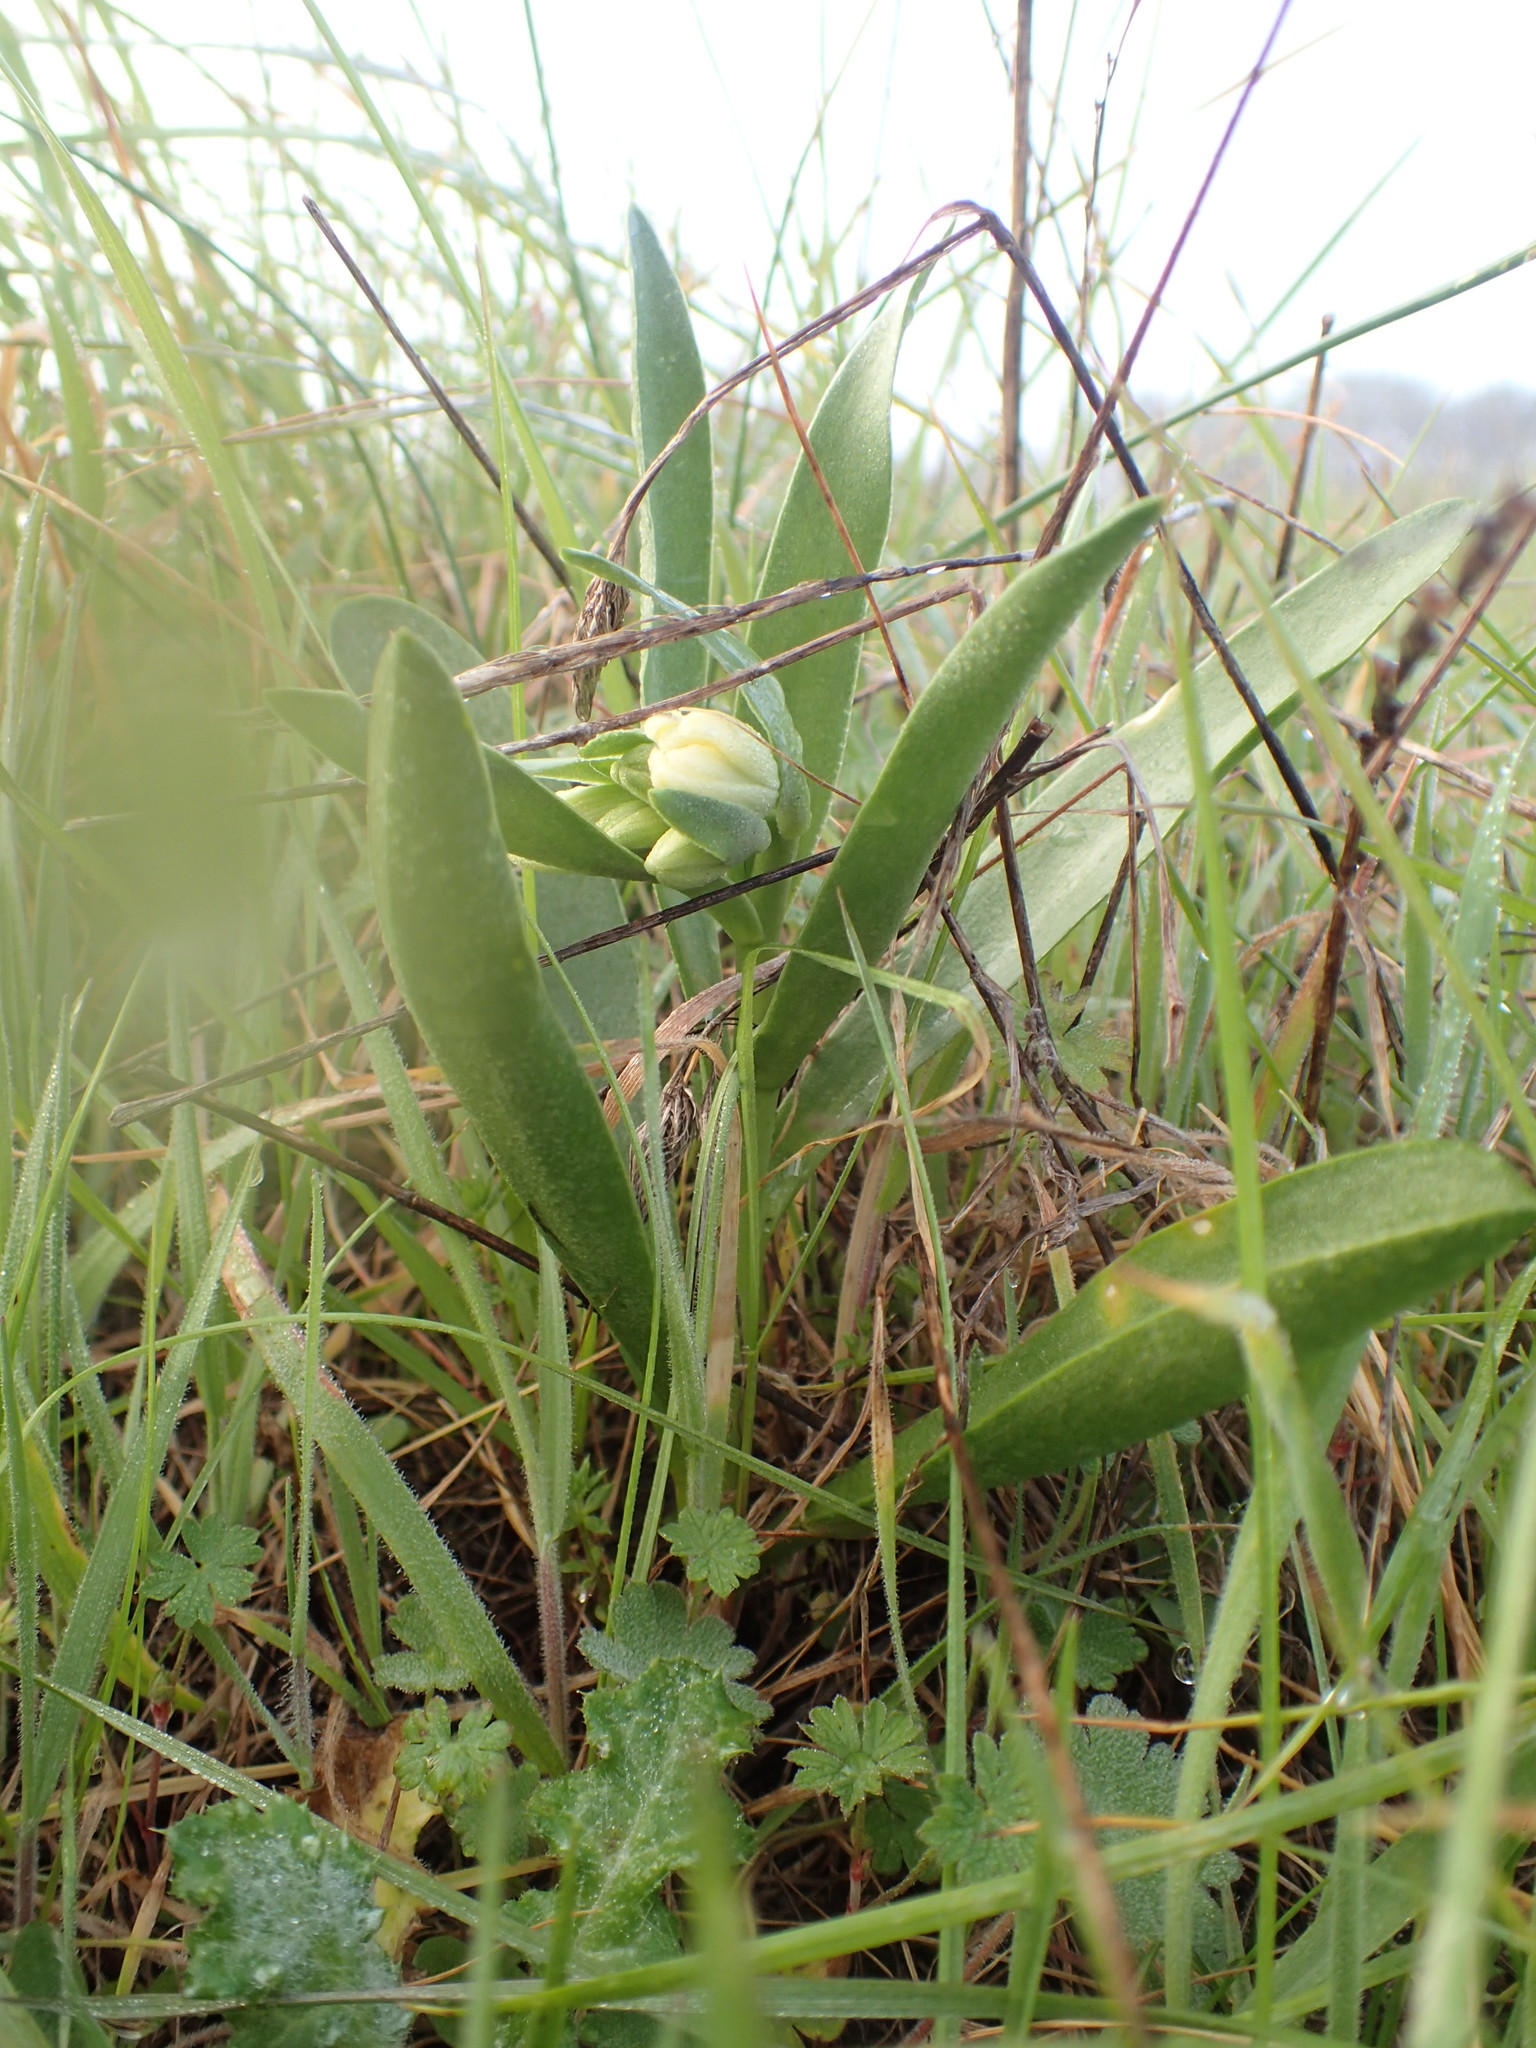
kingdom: Plantae
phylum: Tracheophyta
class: Liliopsida
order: Liliales
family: Liliaceae
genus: Fritillaria
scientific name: Fritillaria liliacea
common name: Fragrant fritillary
